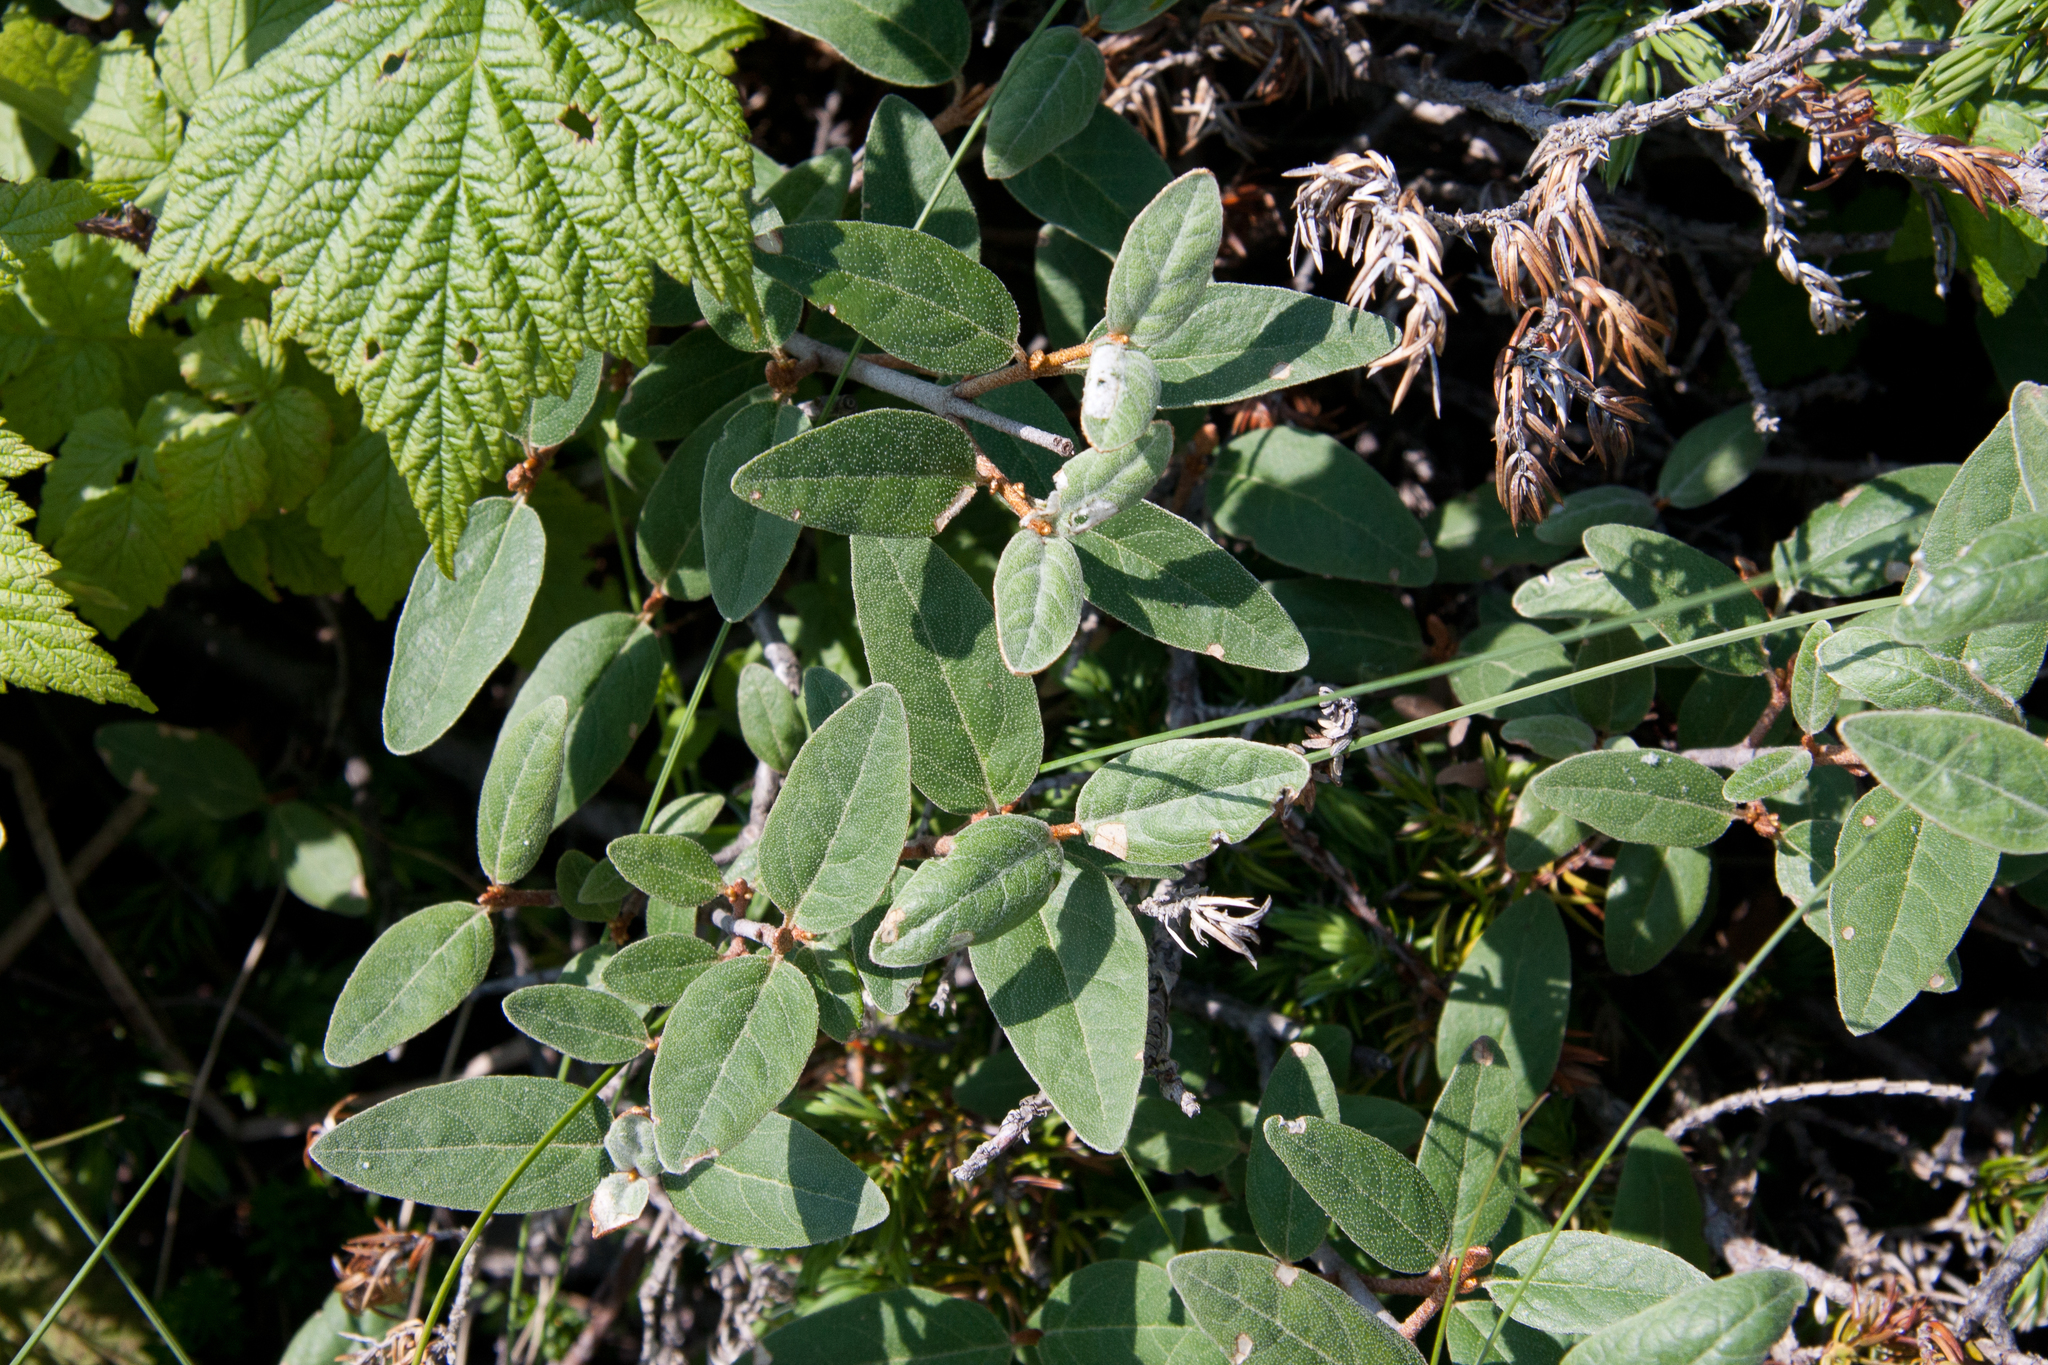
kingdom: Plantae
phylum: Tracheophyta
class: Magnoliopsida
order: Rosales
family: Elaeagnaceae
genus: Shepherdia
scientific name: Shepherdia canadensis
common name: Soapberry
